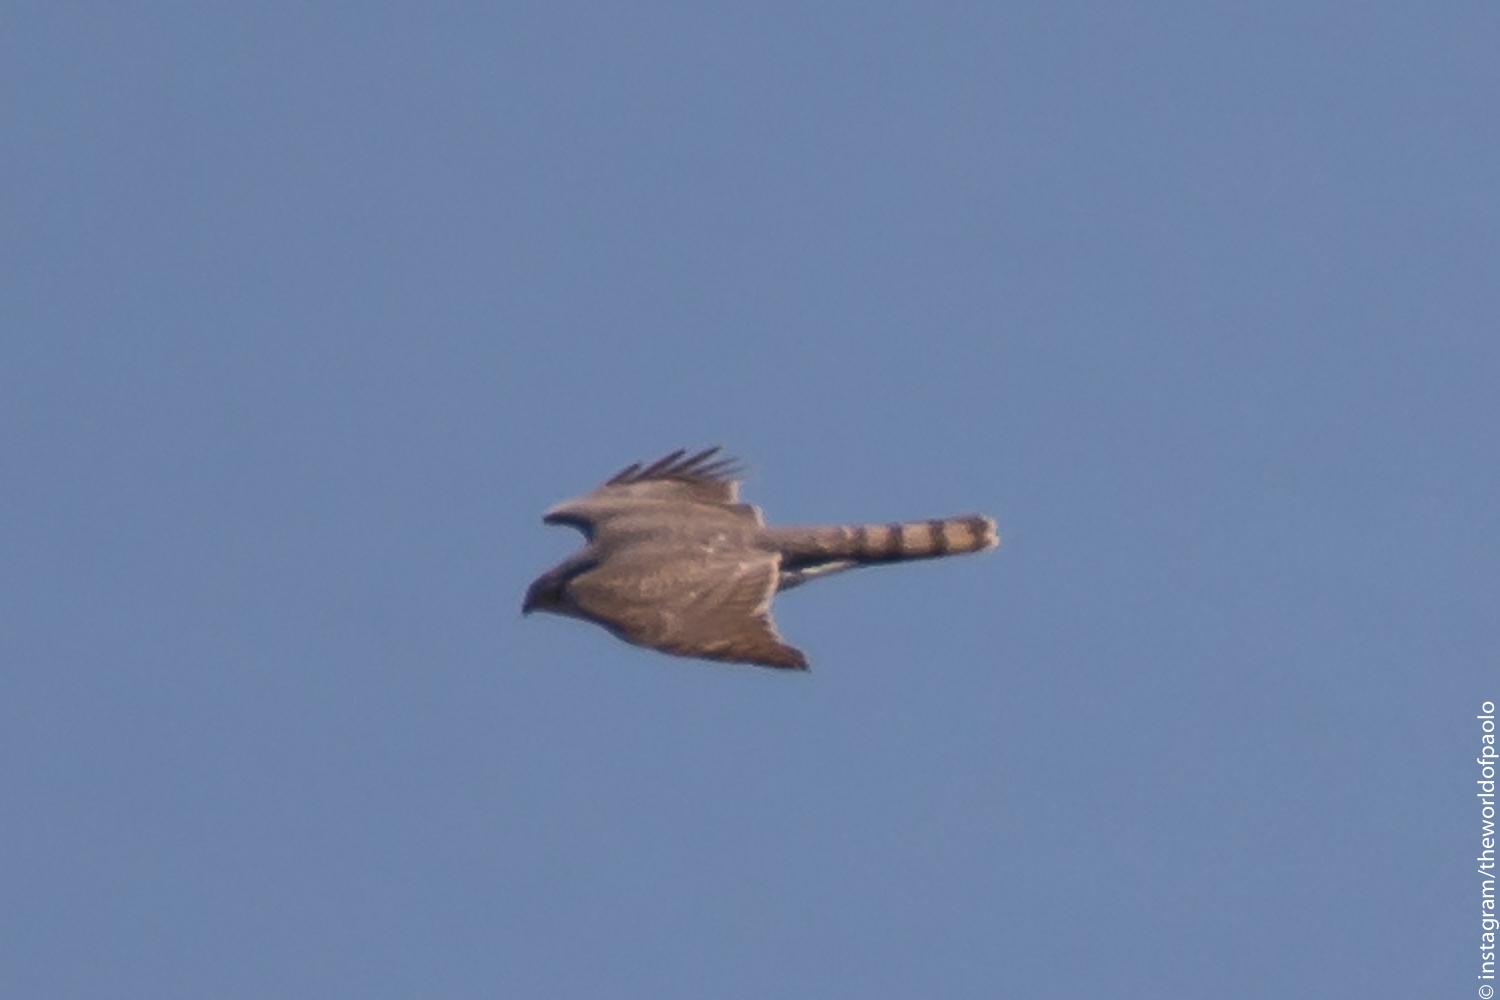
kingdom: Animalia
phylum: Chordata
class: Aves
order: Accipitriformes
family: Accipitridae
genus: Accipiter
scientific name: Accipiter nisus
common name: Eurasian sparrowhawk
